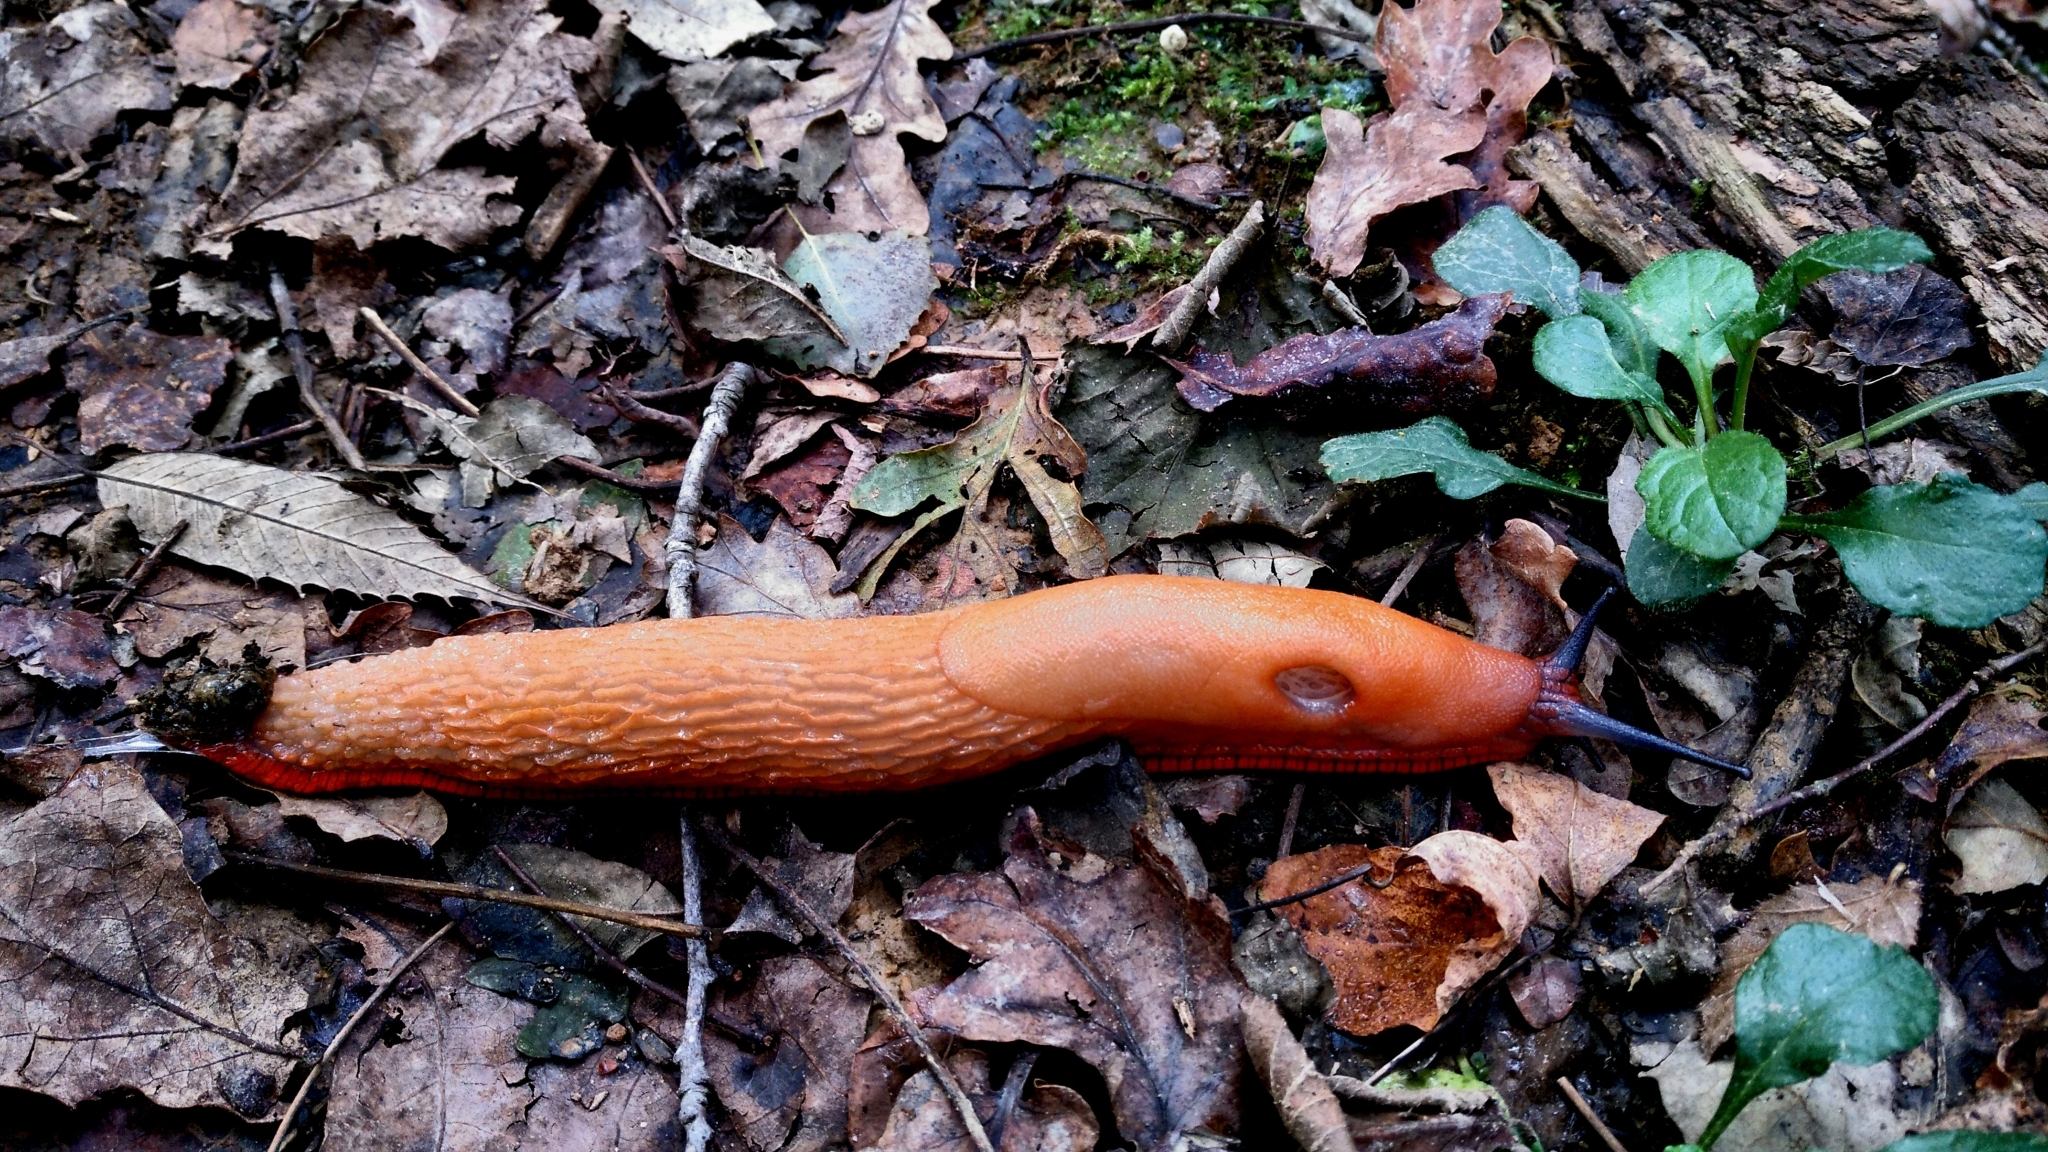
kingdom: Animalia
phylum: Mollusca
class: Gastropoda
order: Stylommatophora
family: Arionidae
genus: Arion
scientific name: Arion vulgaris
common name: Lusitanian slug
